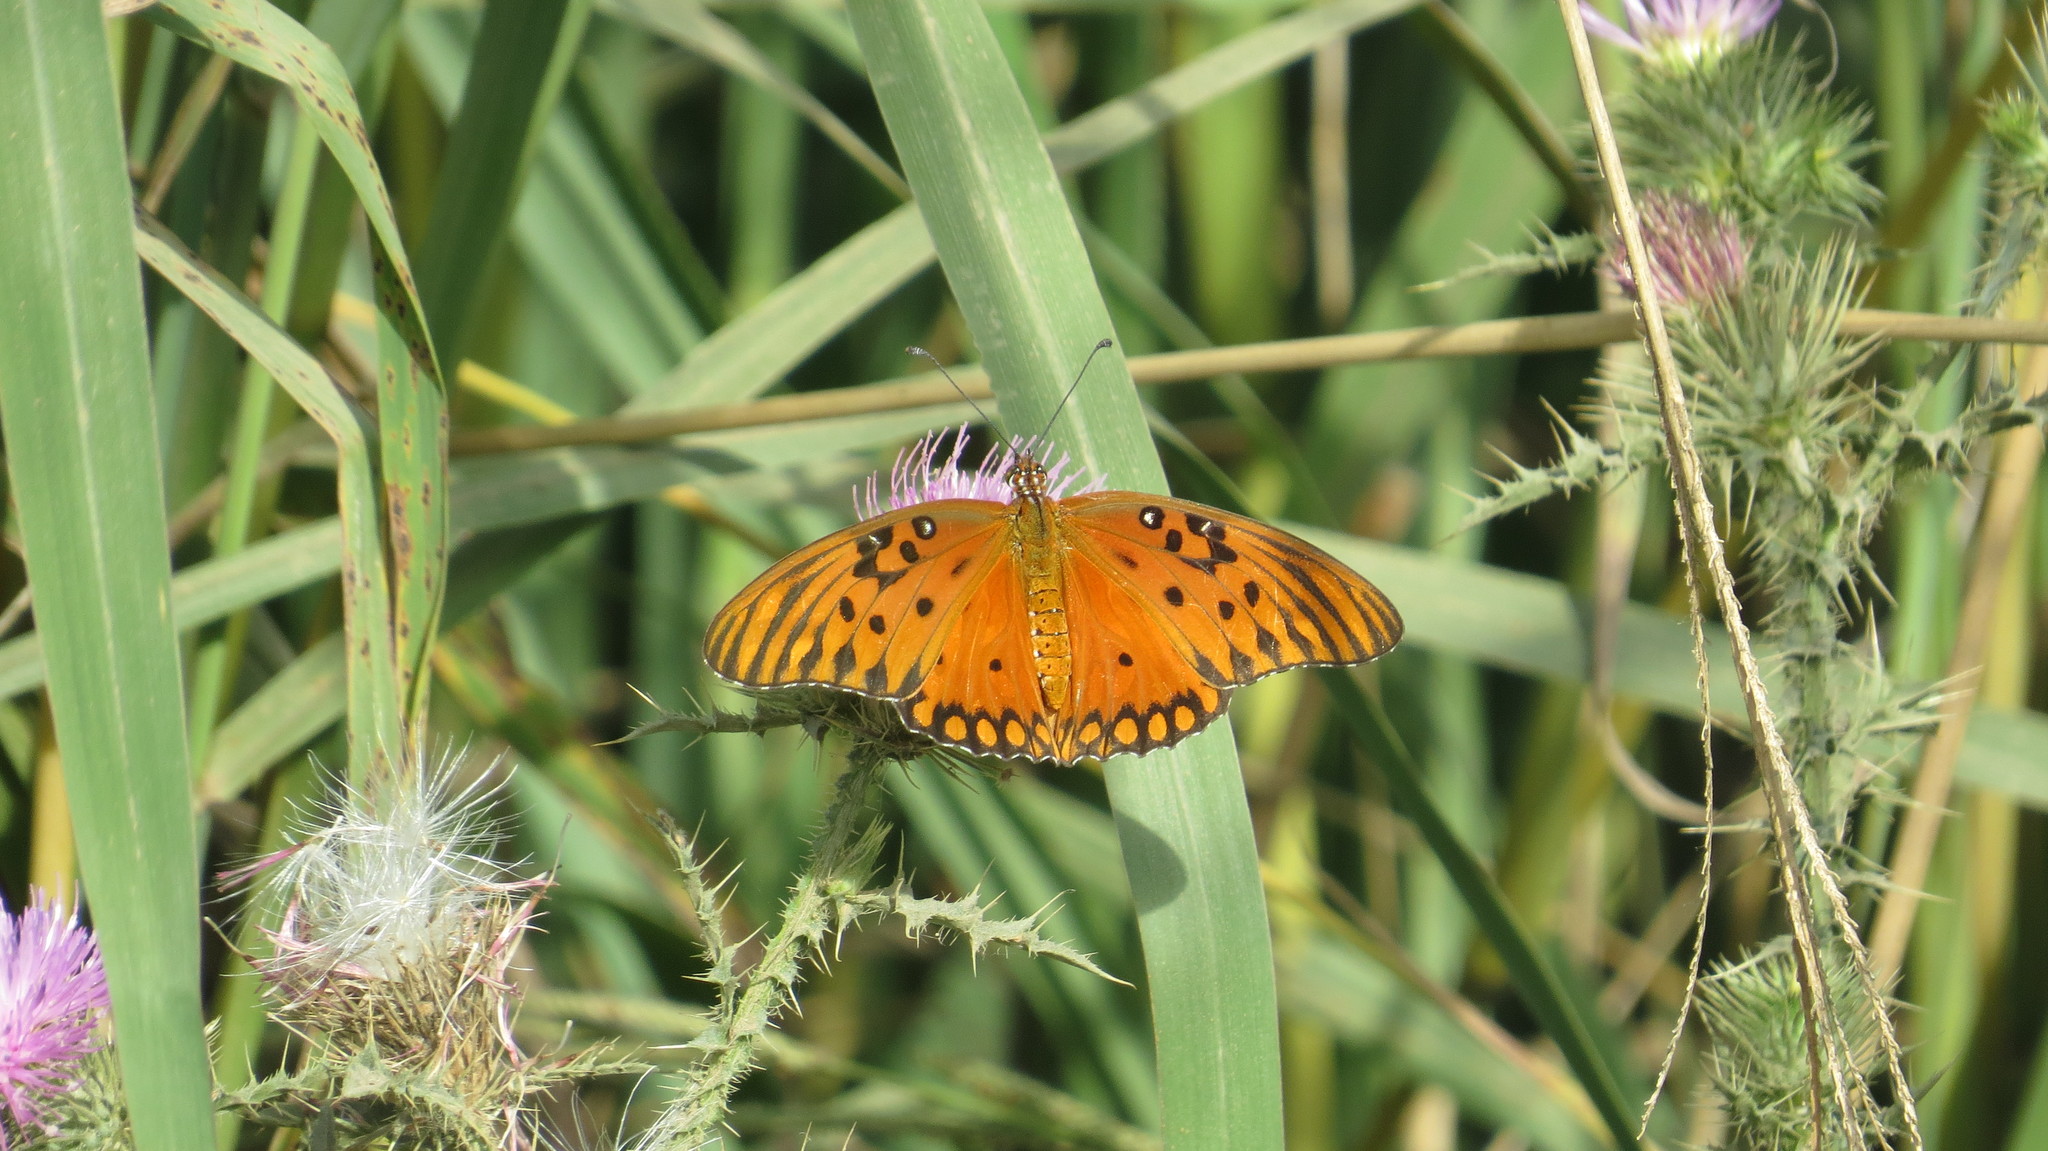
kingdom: Animalia
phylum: Arthropoda
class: Insecta
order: Lepidoptera
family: Nymphalidae
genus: Dione
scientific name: Dione vanillae
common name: Gulf fritillary
